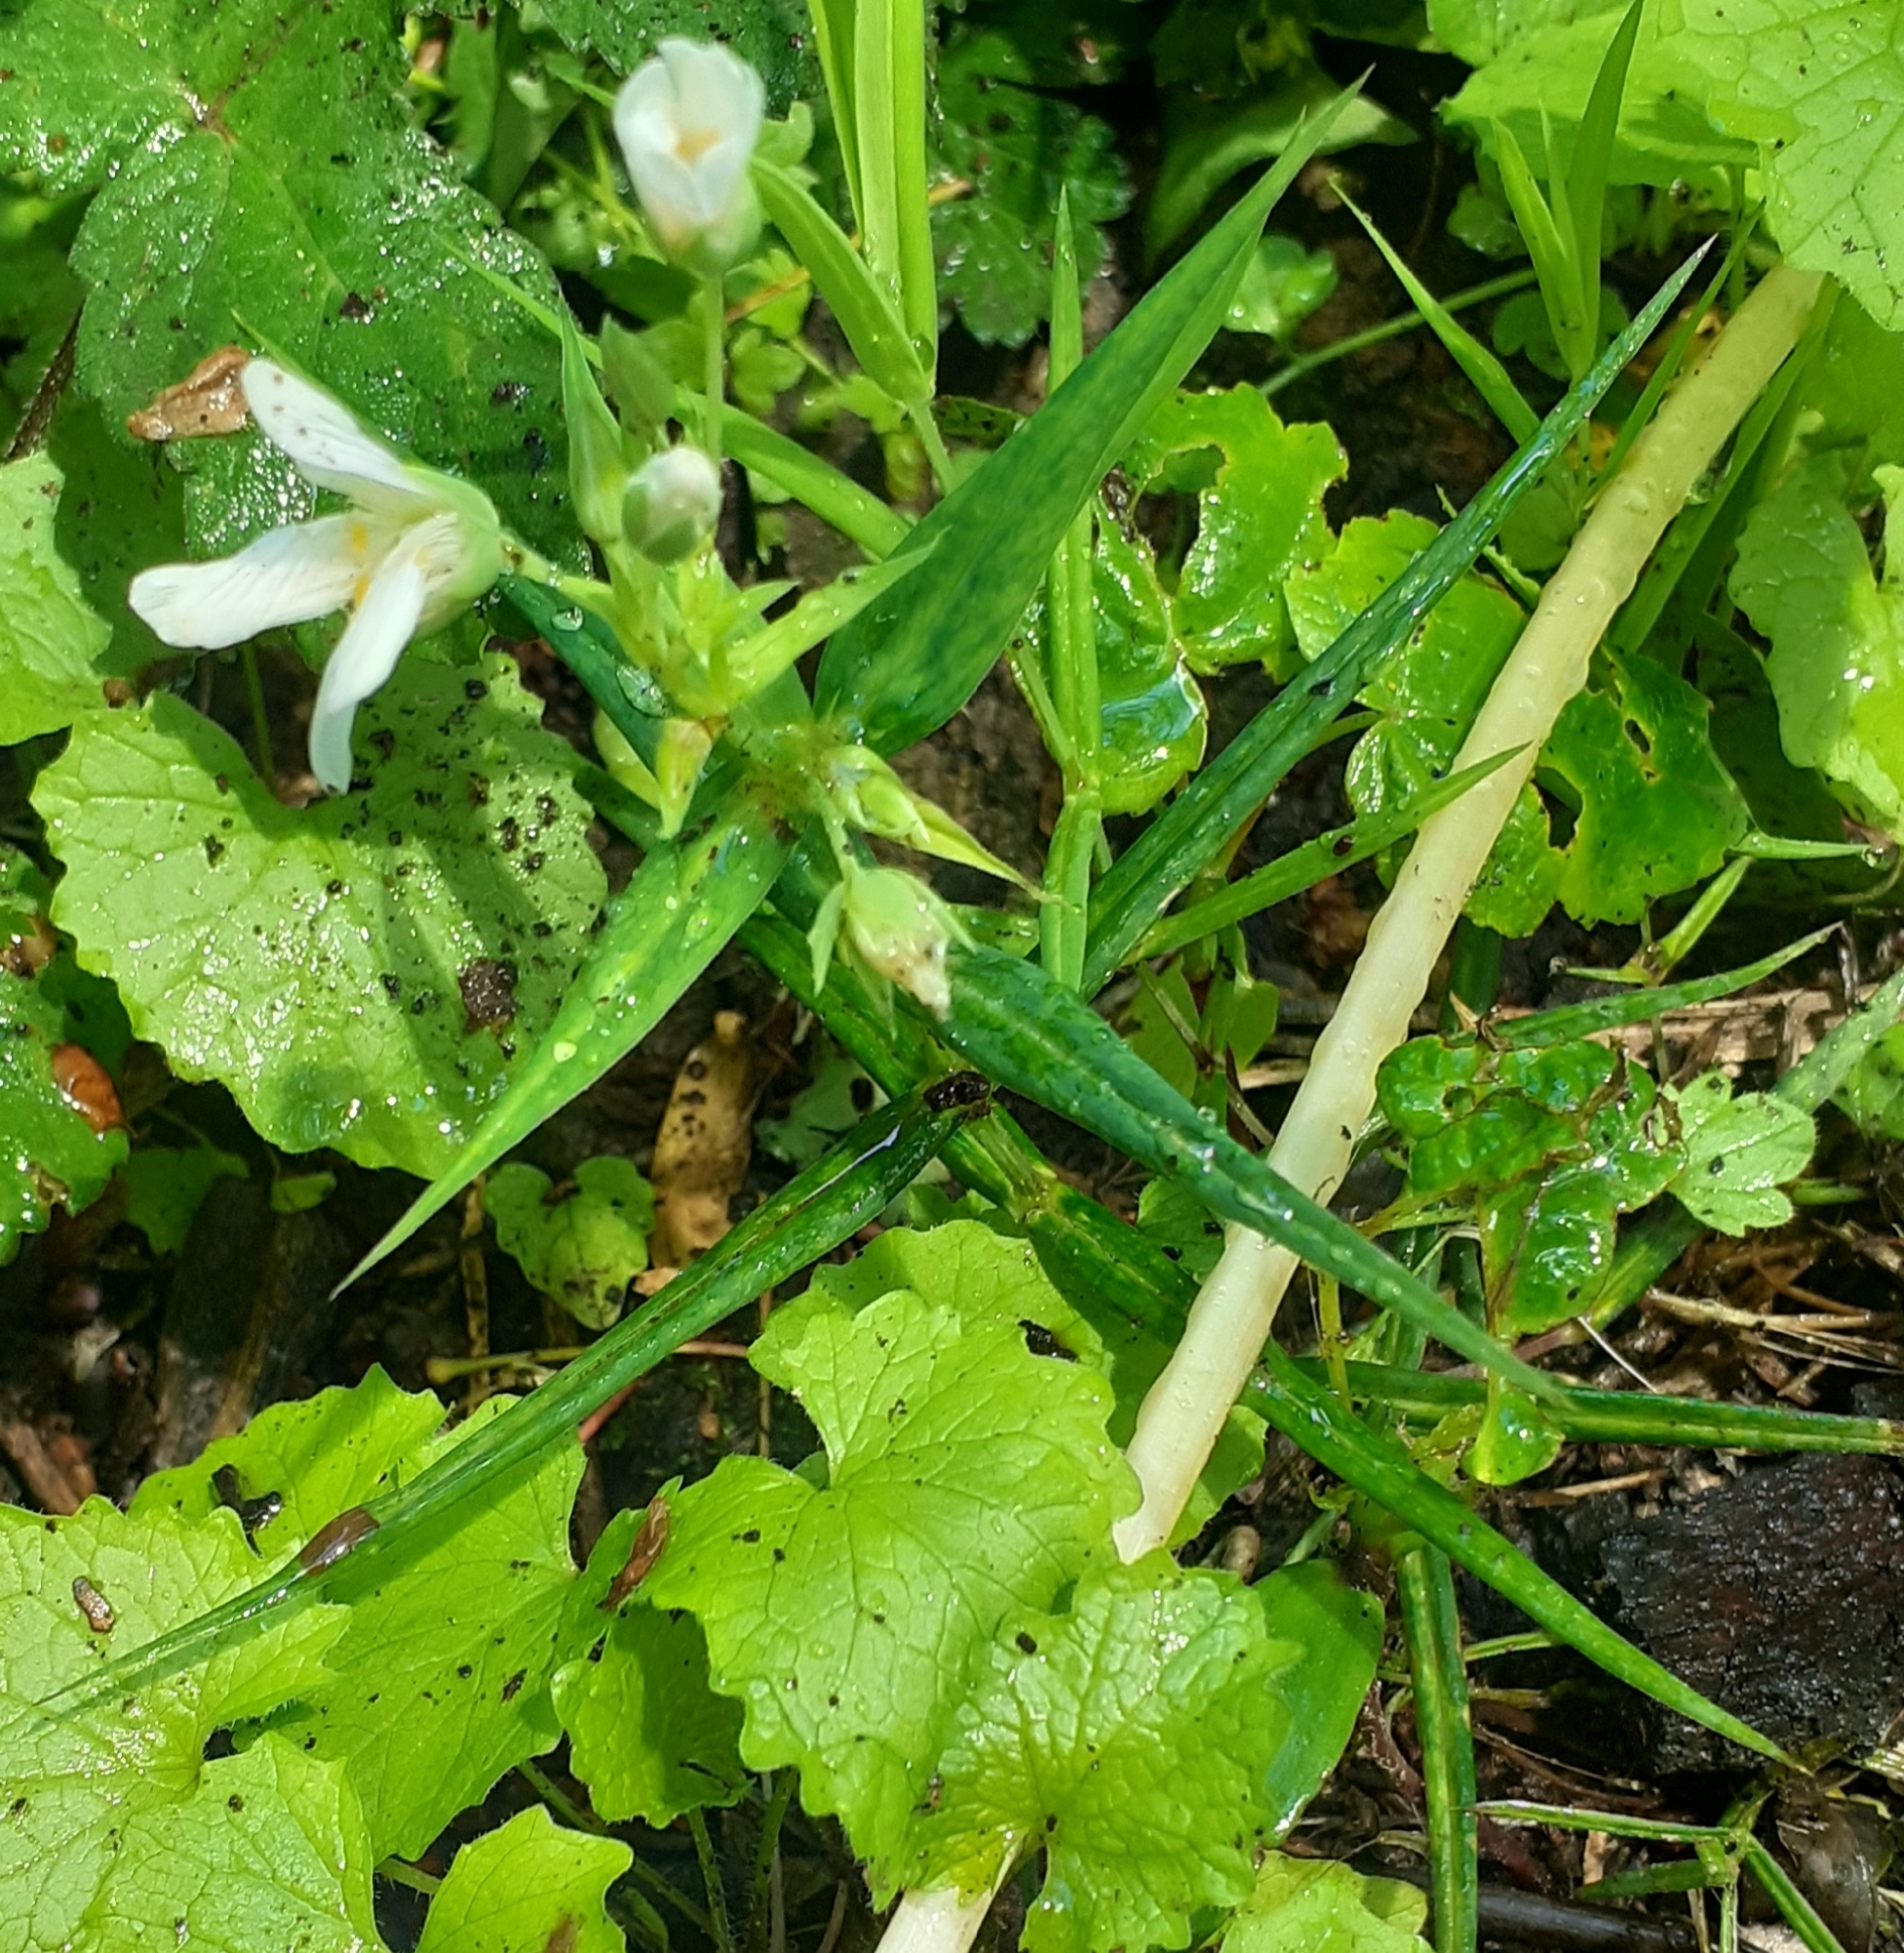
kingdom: Plantae
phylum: Tracheophyta
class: Magnoliopsida
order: Caryophyllales
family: Caryophyllaceae
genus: Rabelera
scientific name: Rabelera holostea
